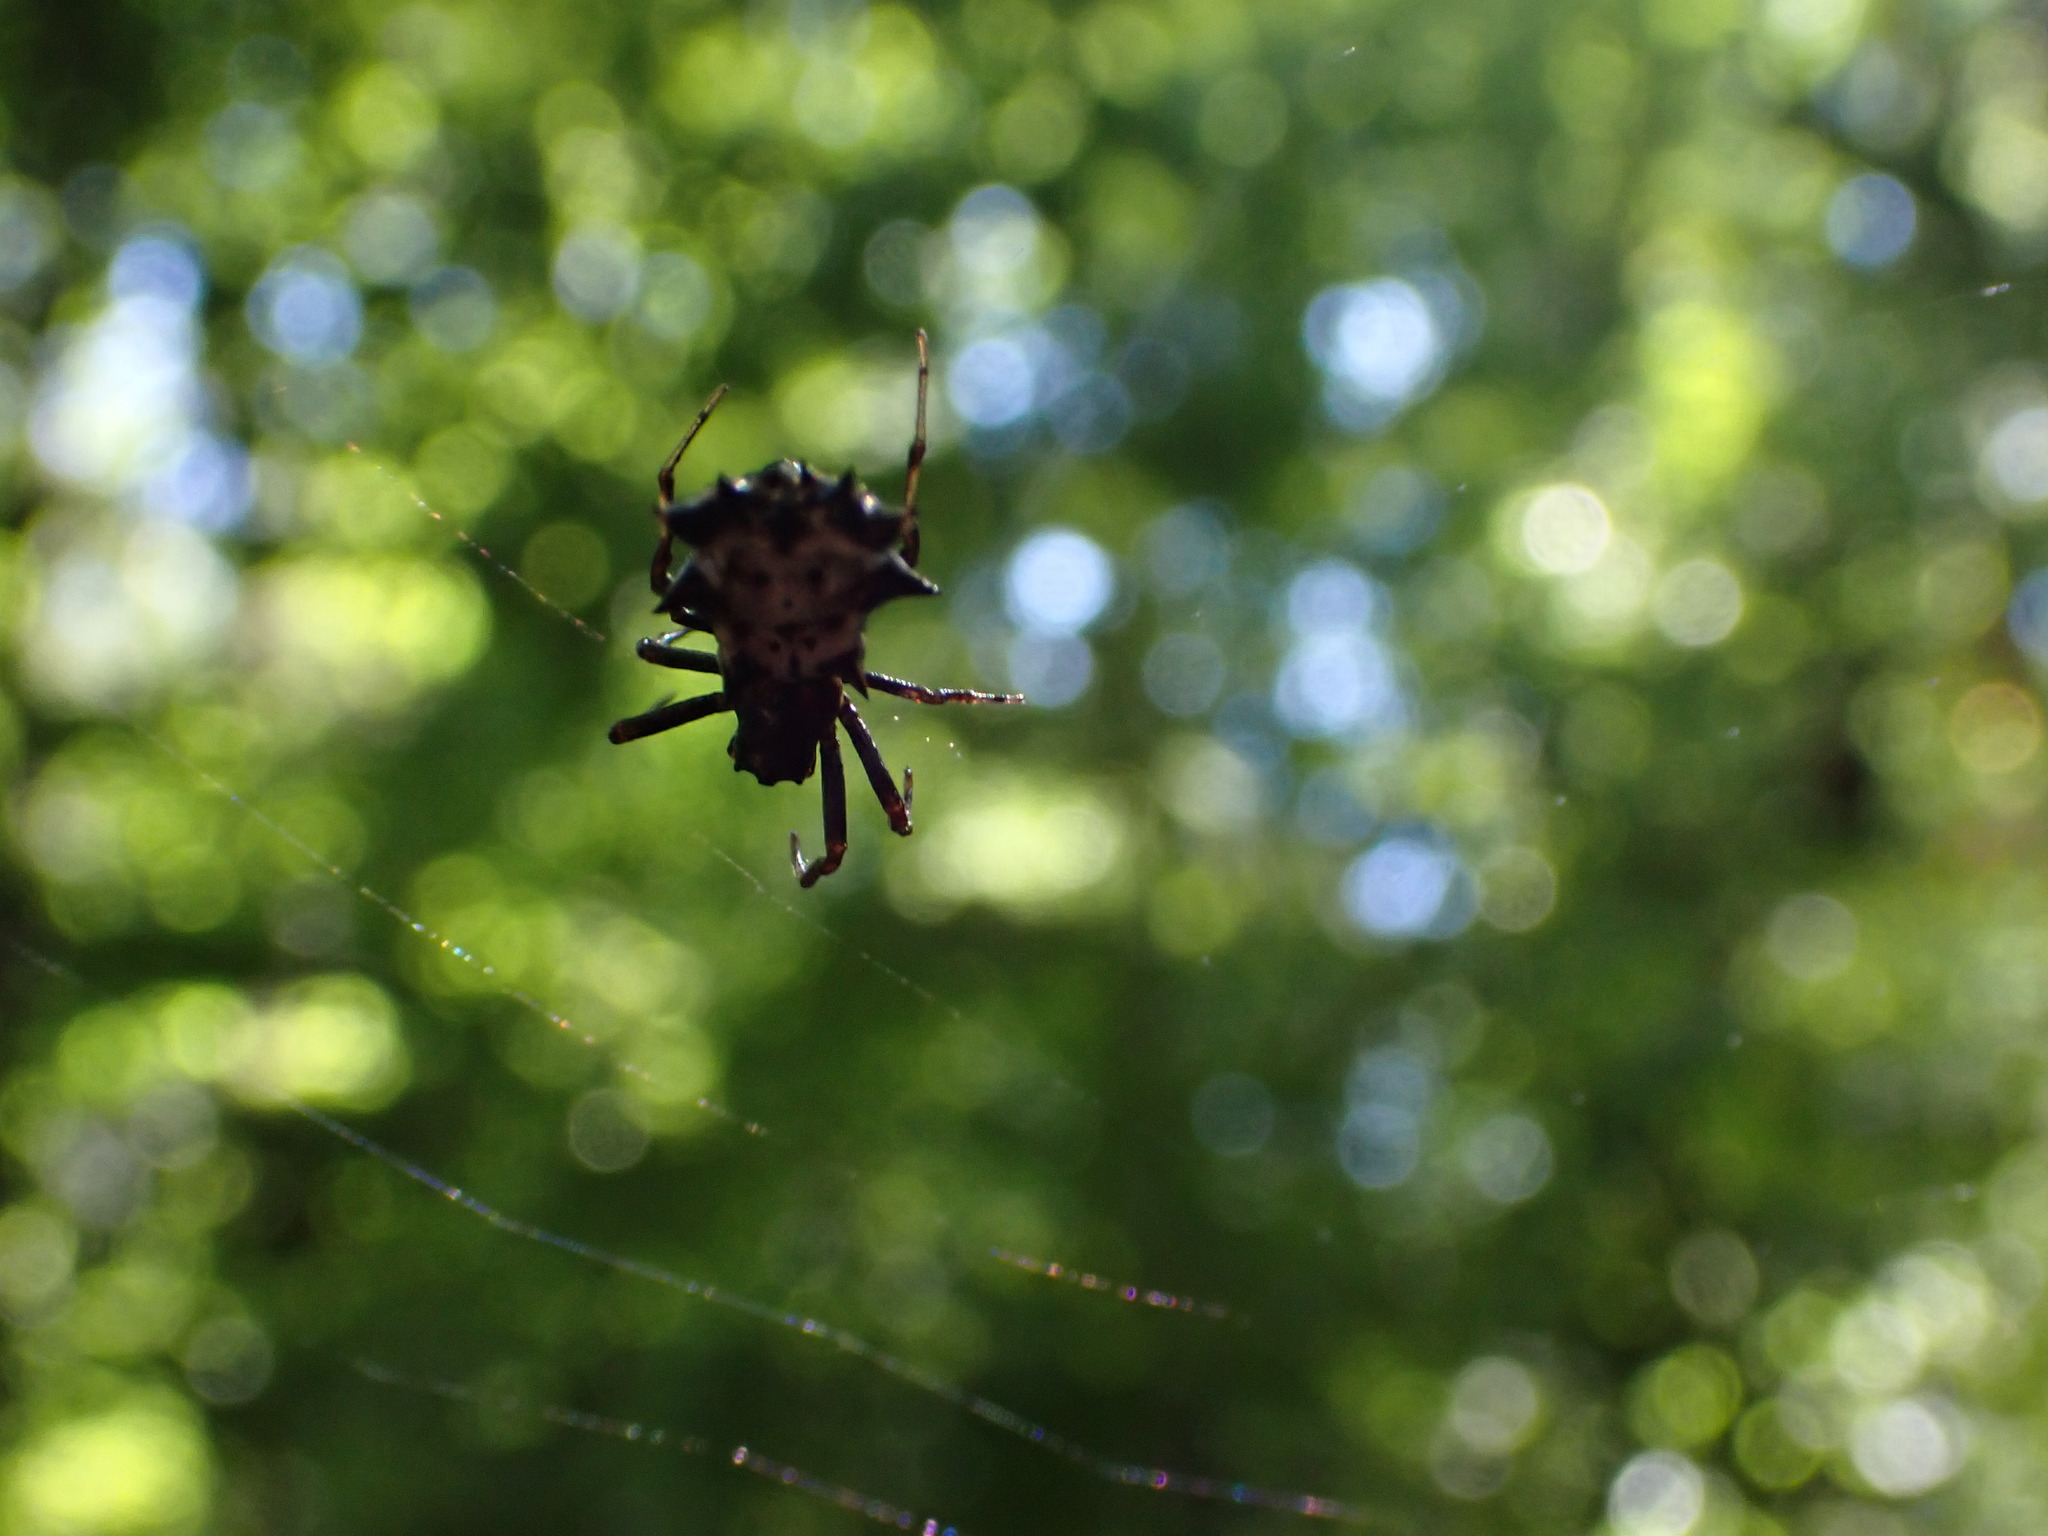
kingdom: Animalia
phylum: Arthropoda
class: Arachnida
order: Araneae
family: Araneidae
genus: Micrathena
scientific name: Micrathena gracilis
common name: Orb weavers
